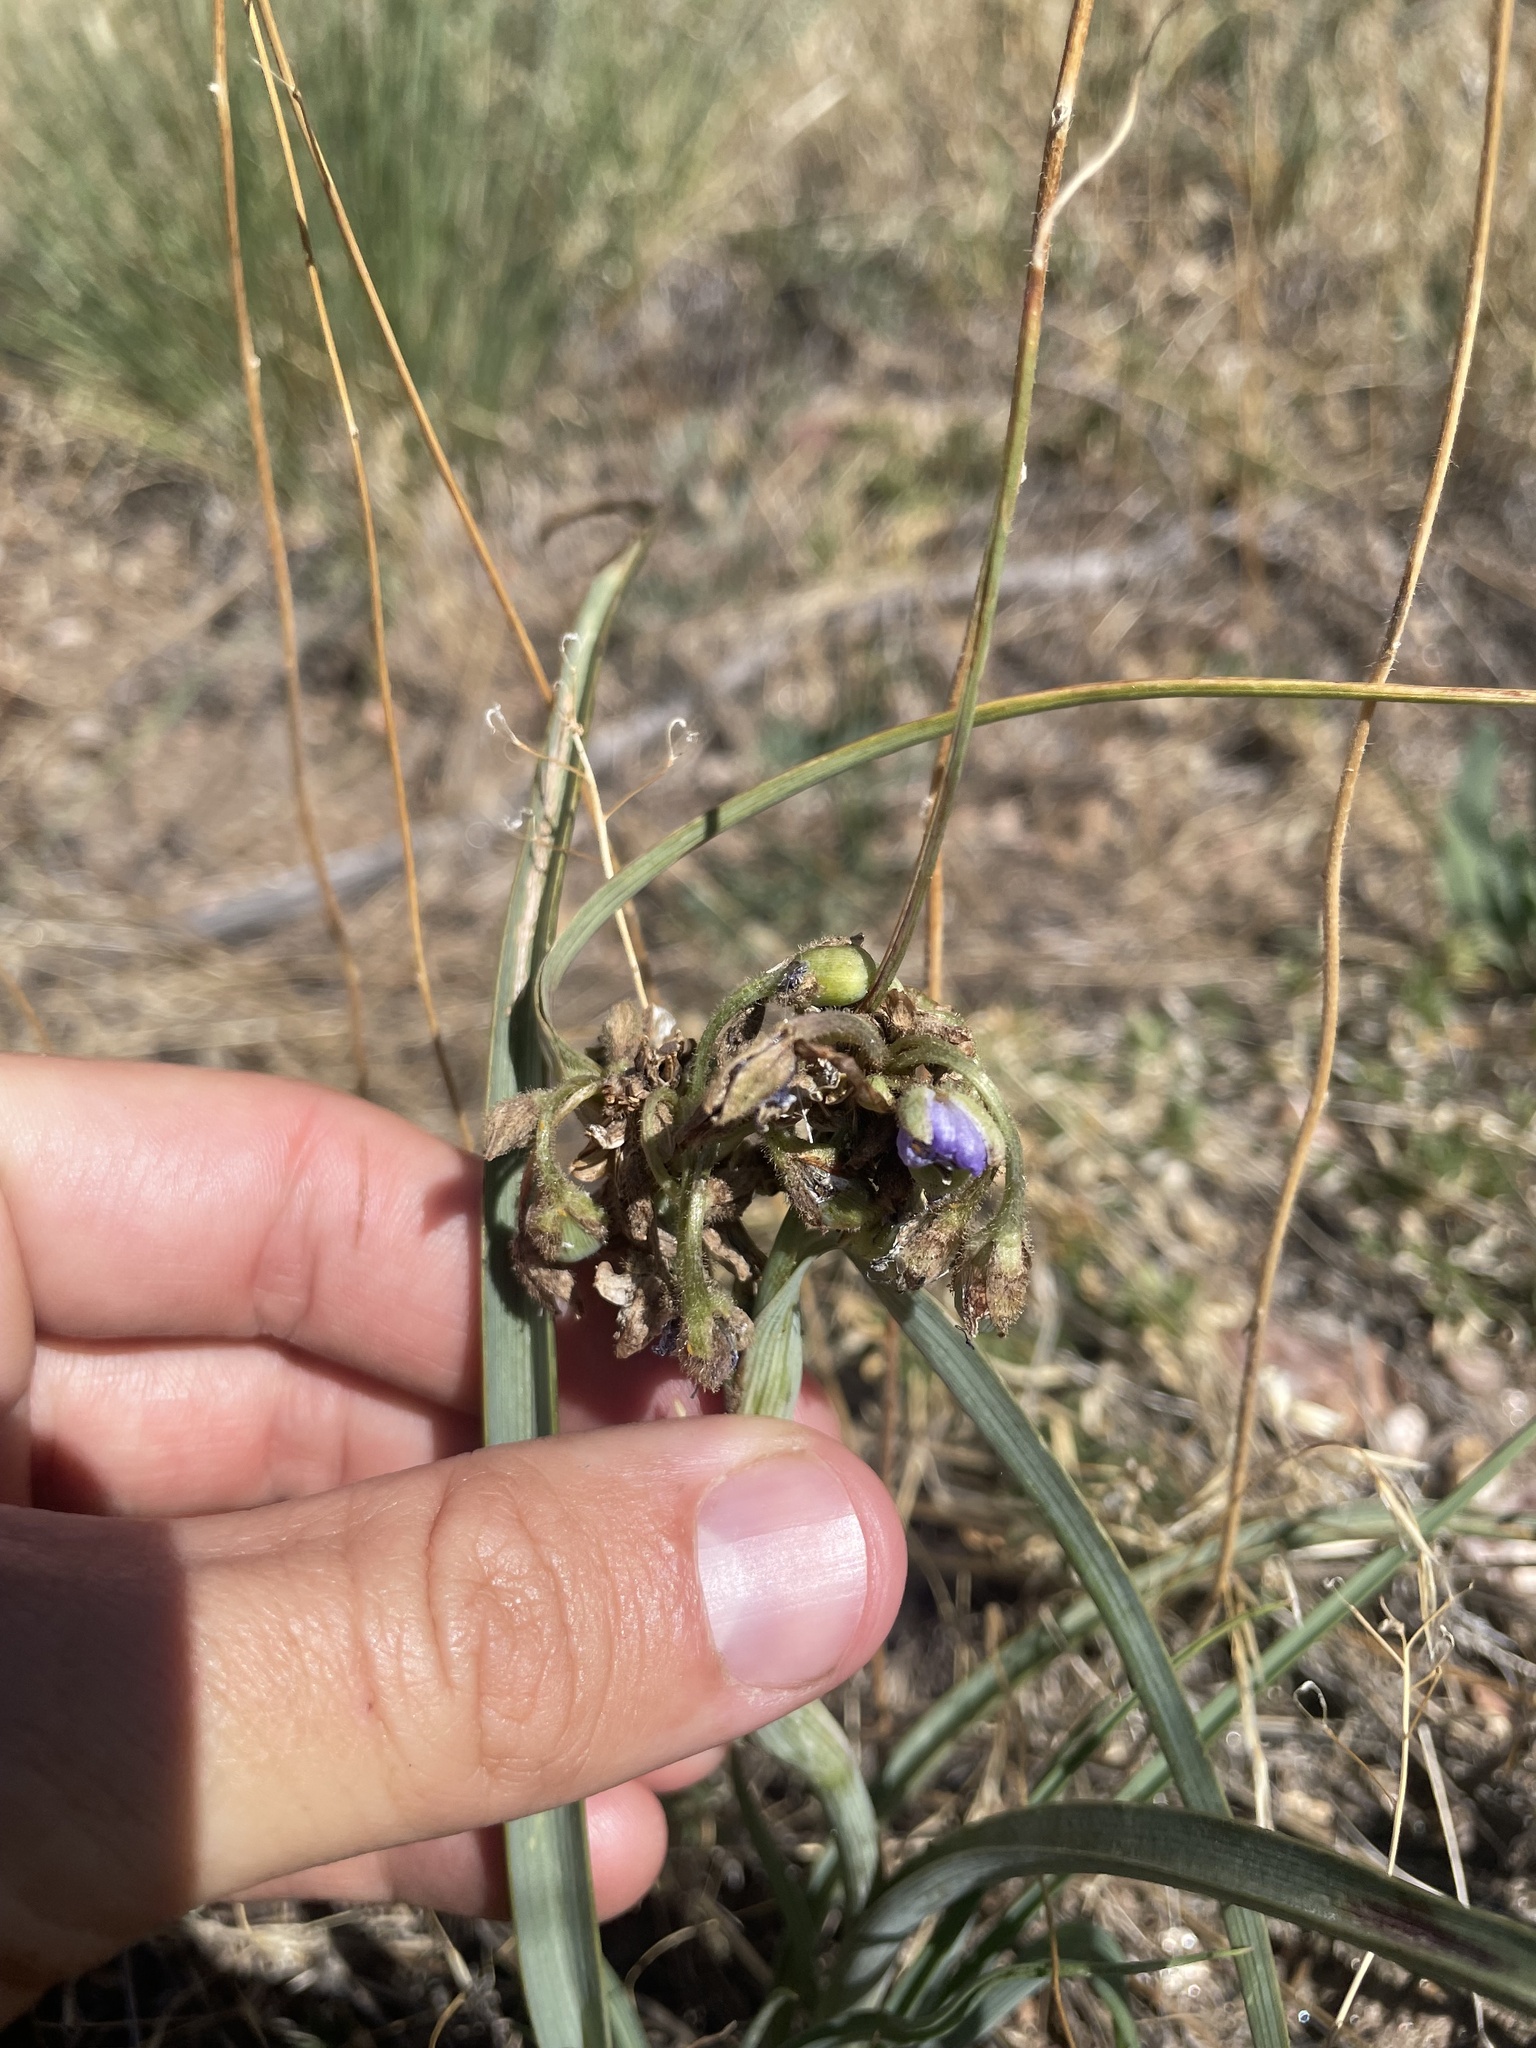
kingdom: Plantae
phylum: Tracheophyta
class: Liliopsida
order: Commelinales
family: Commelinaceae
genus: Tradescantia
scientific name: Tradescantia occidentalis
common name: Prairie spiderwort
